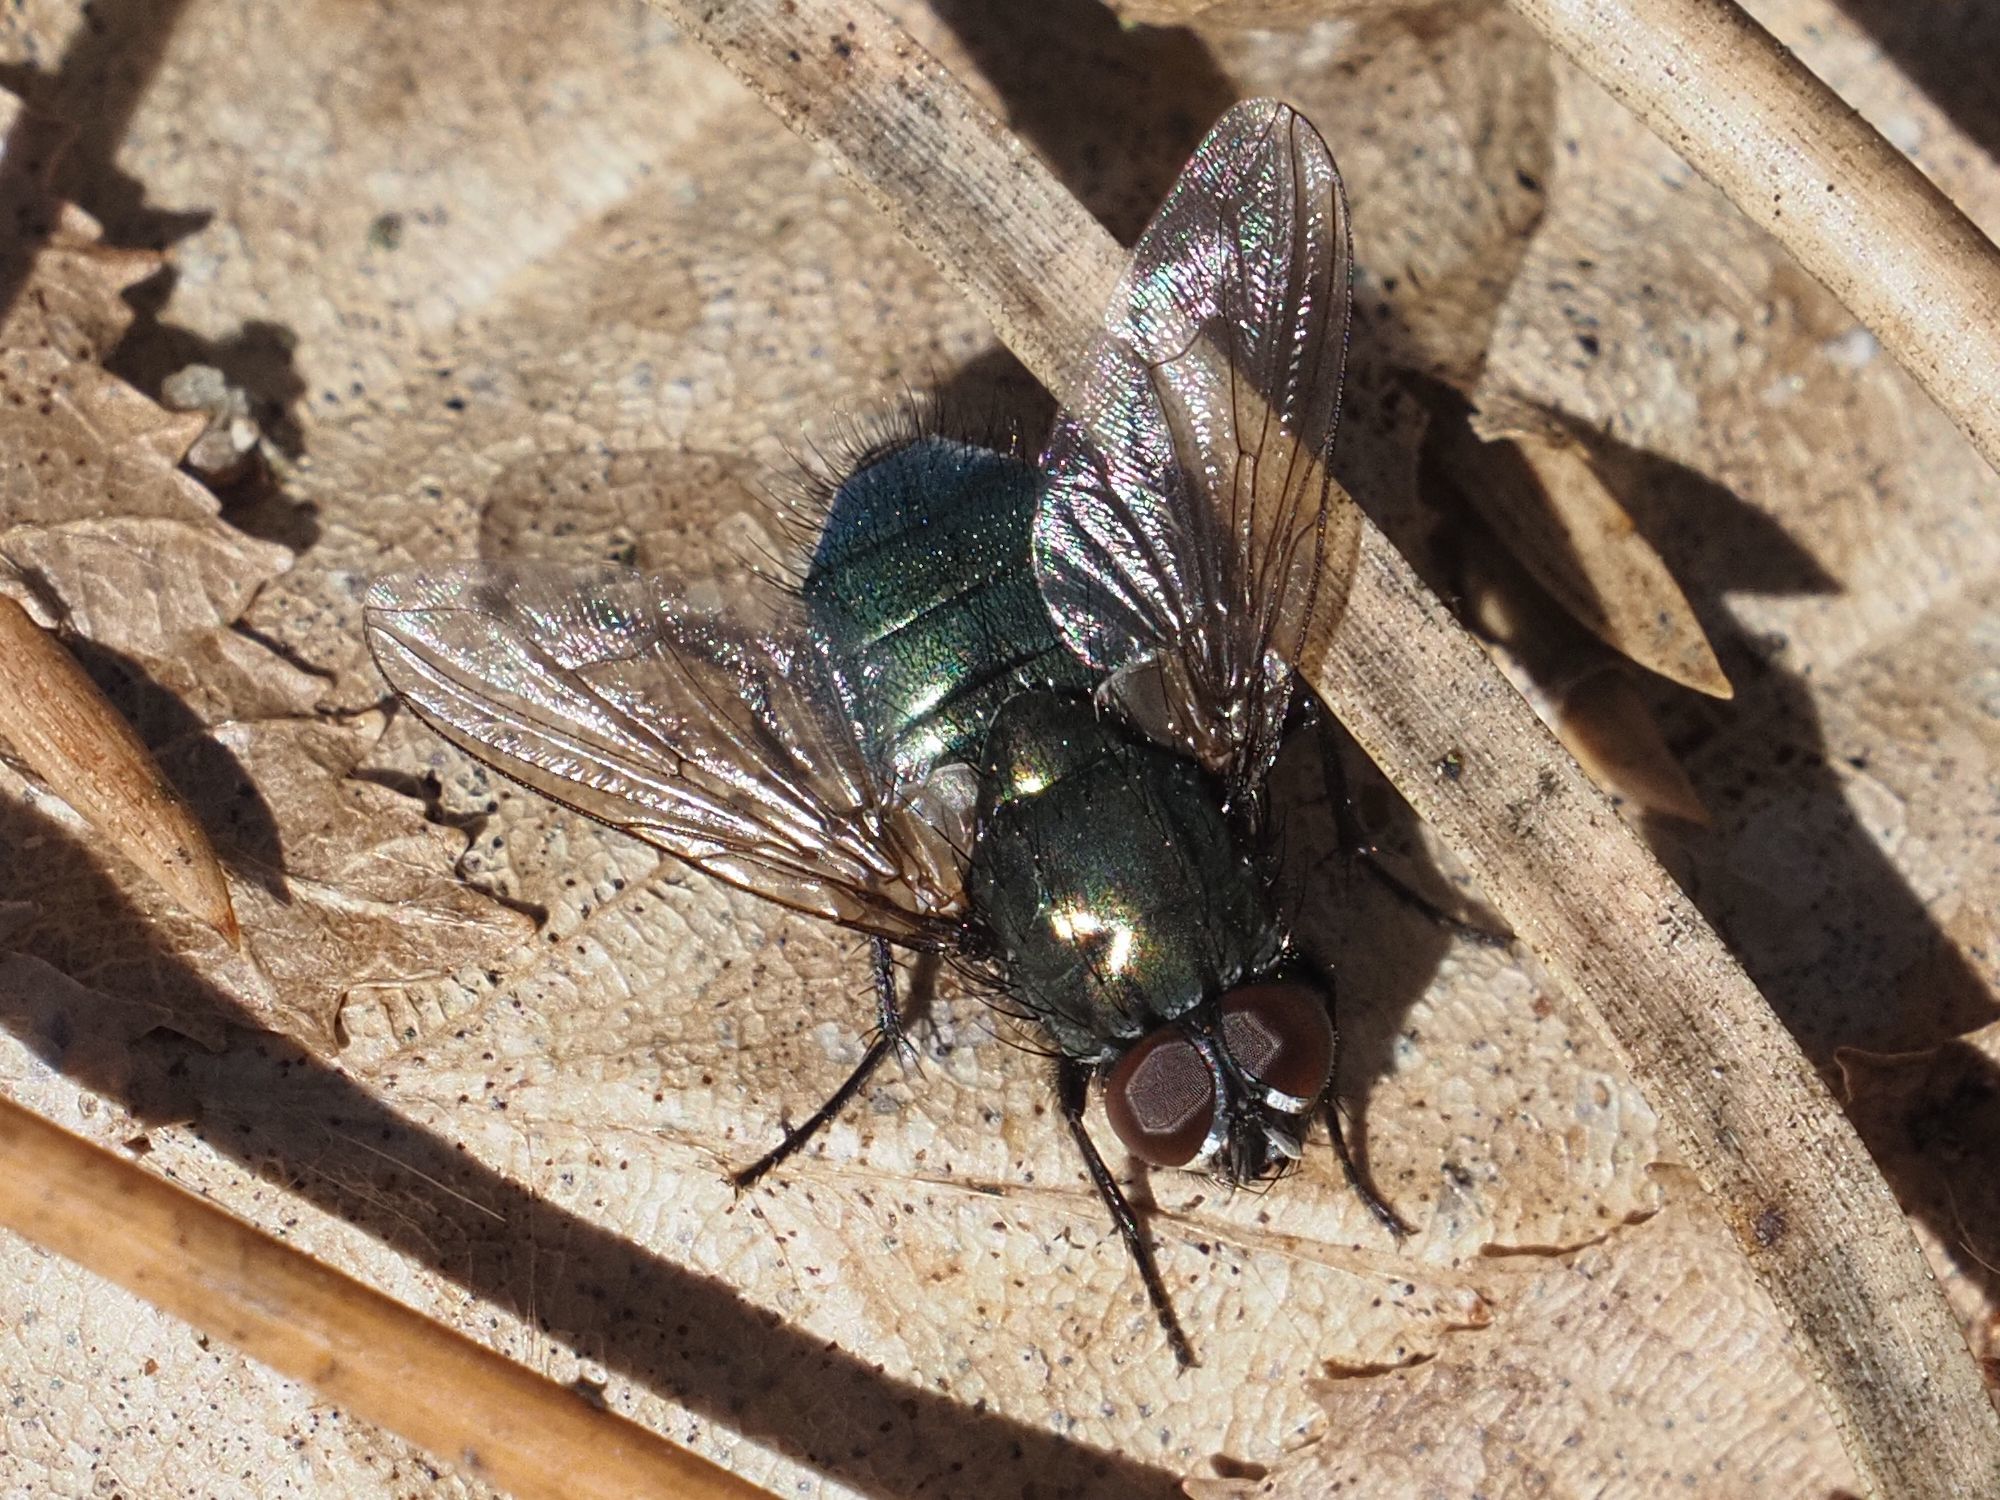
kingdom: Animalia
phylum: Arthropoda
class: Insecta
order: Diptera
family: Muscidae
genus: Dasyphora
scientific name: Dasyphora cyanella
